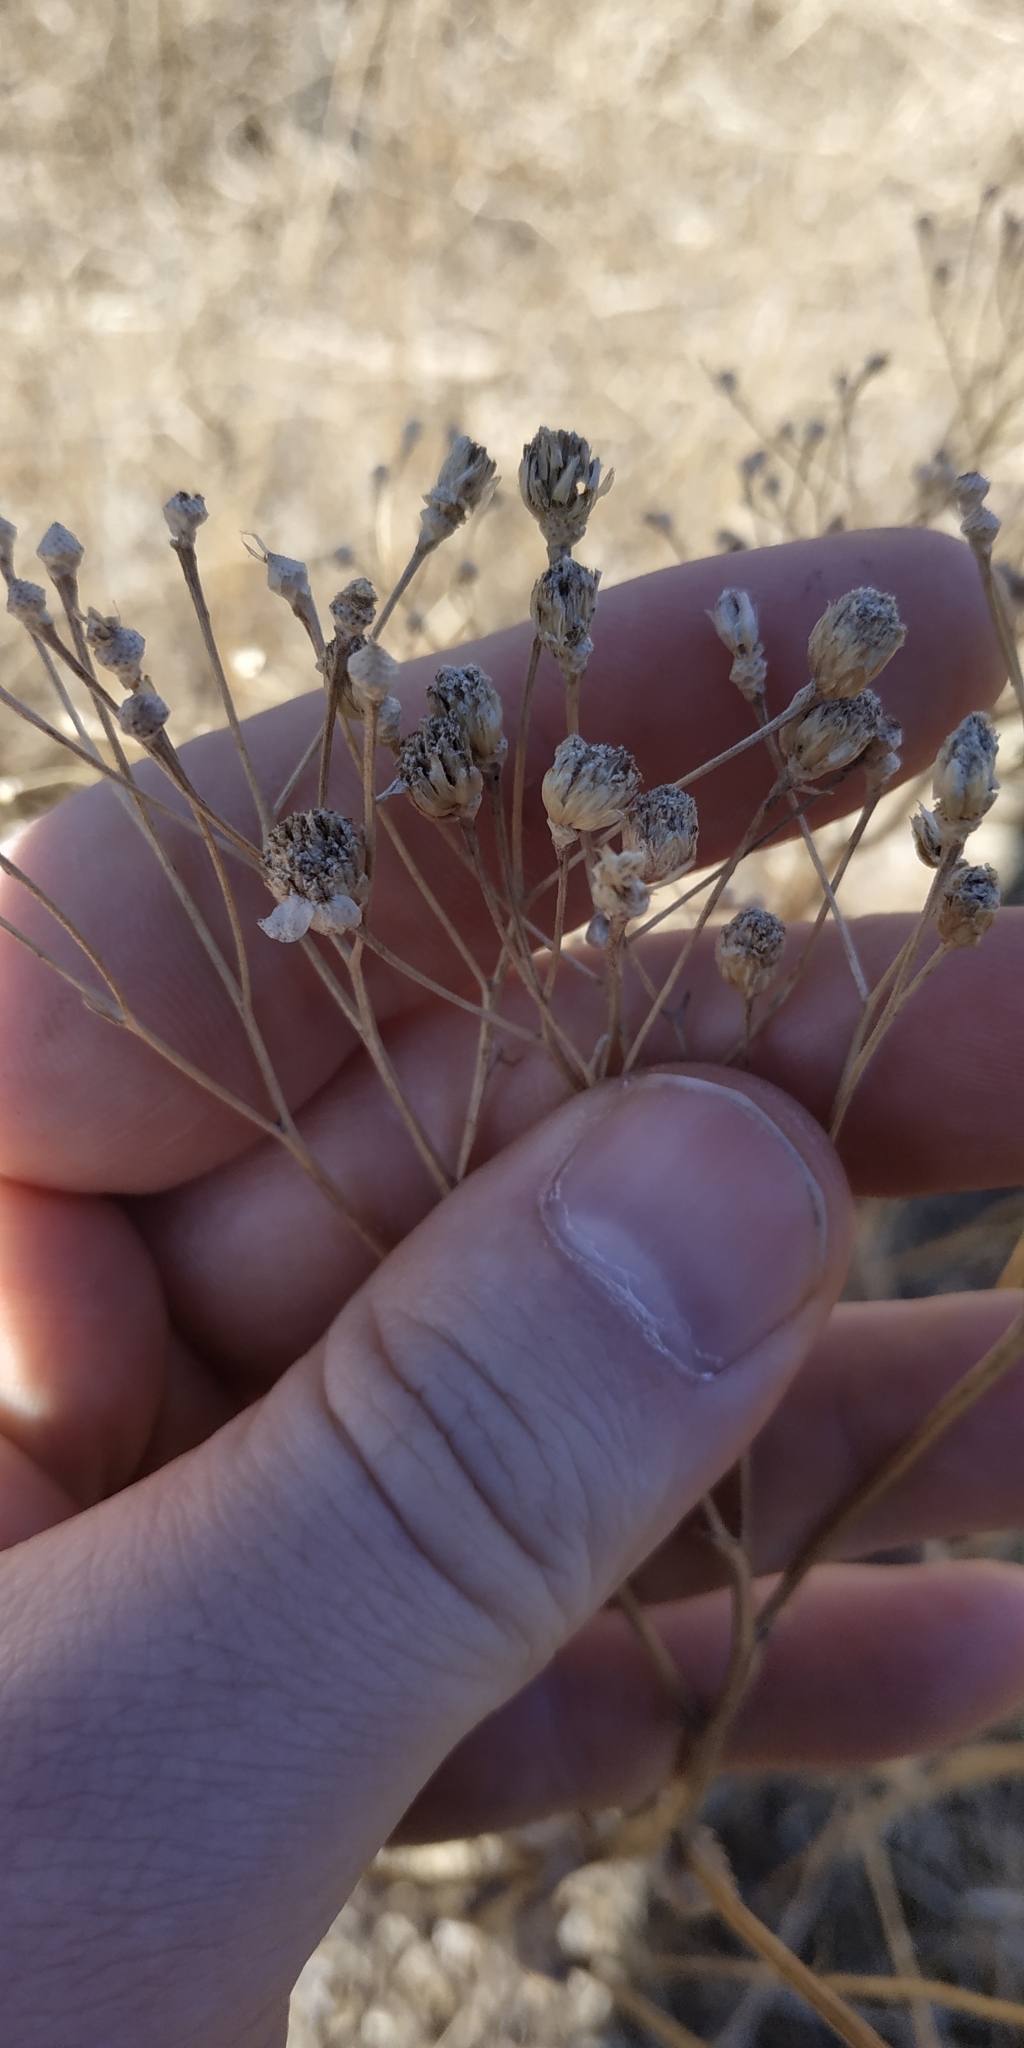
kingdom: Plantae
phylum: Tracheophyta
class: Magnoliopsida
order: Asterales
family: Asteraceae
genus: Achillea
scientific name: Achillea salicifolia
